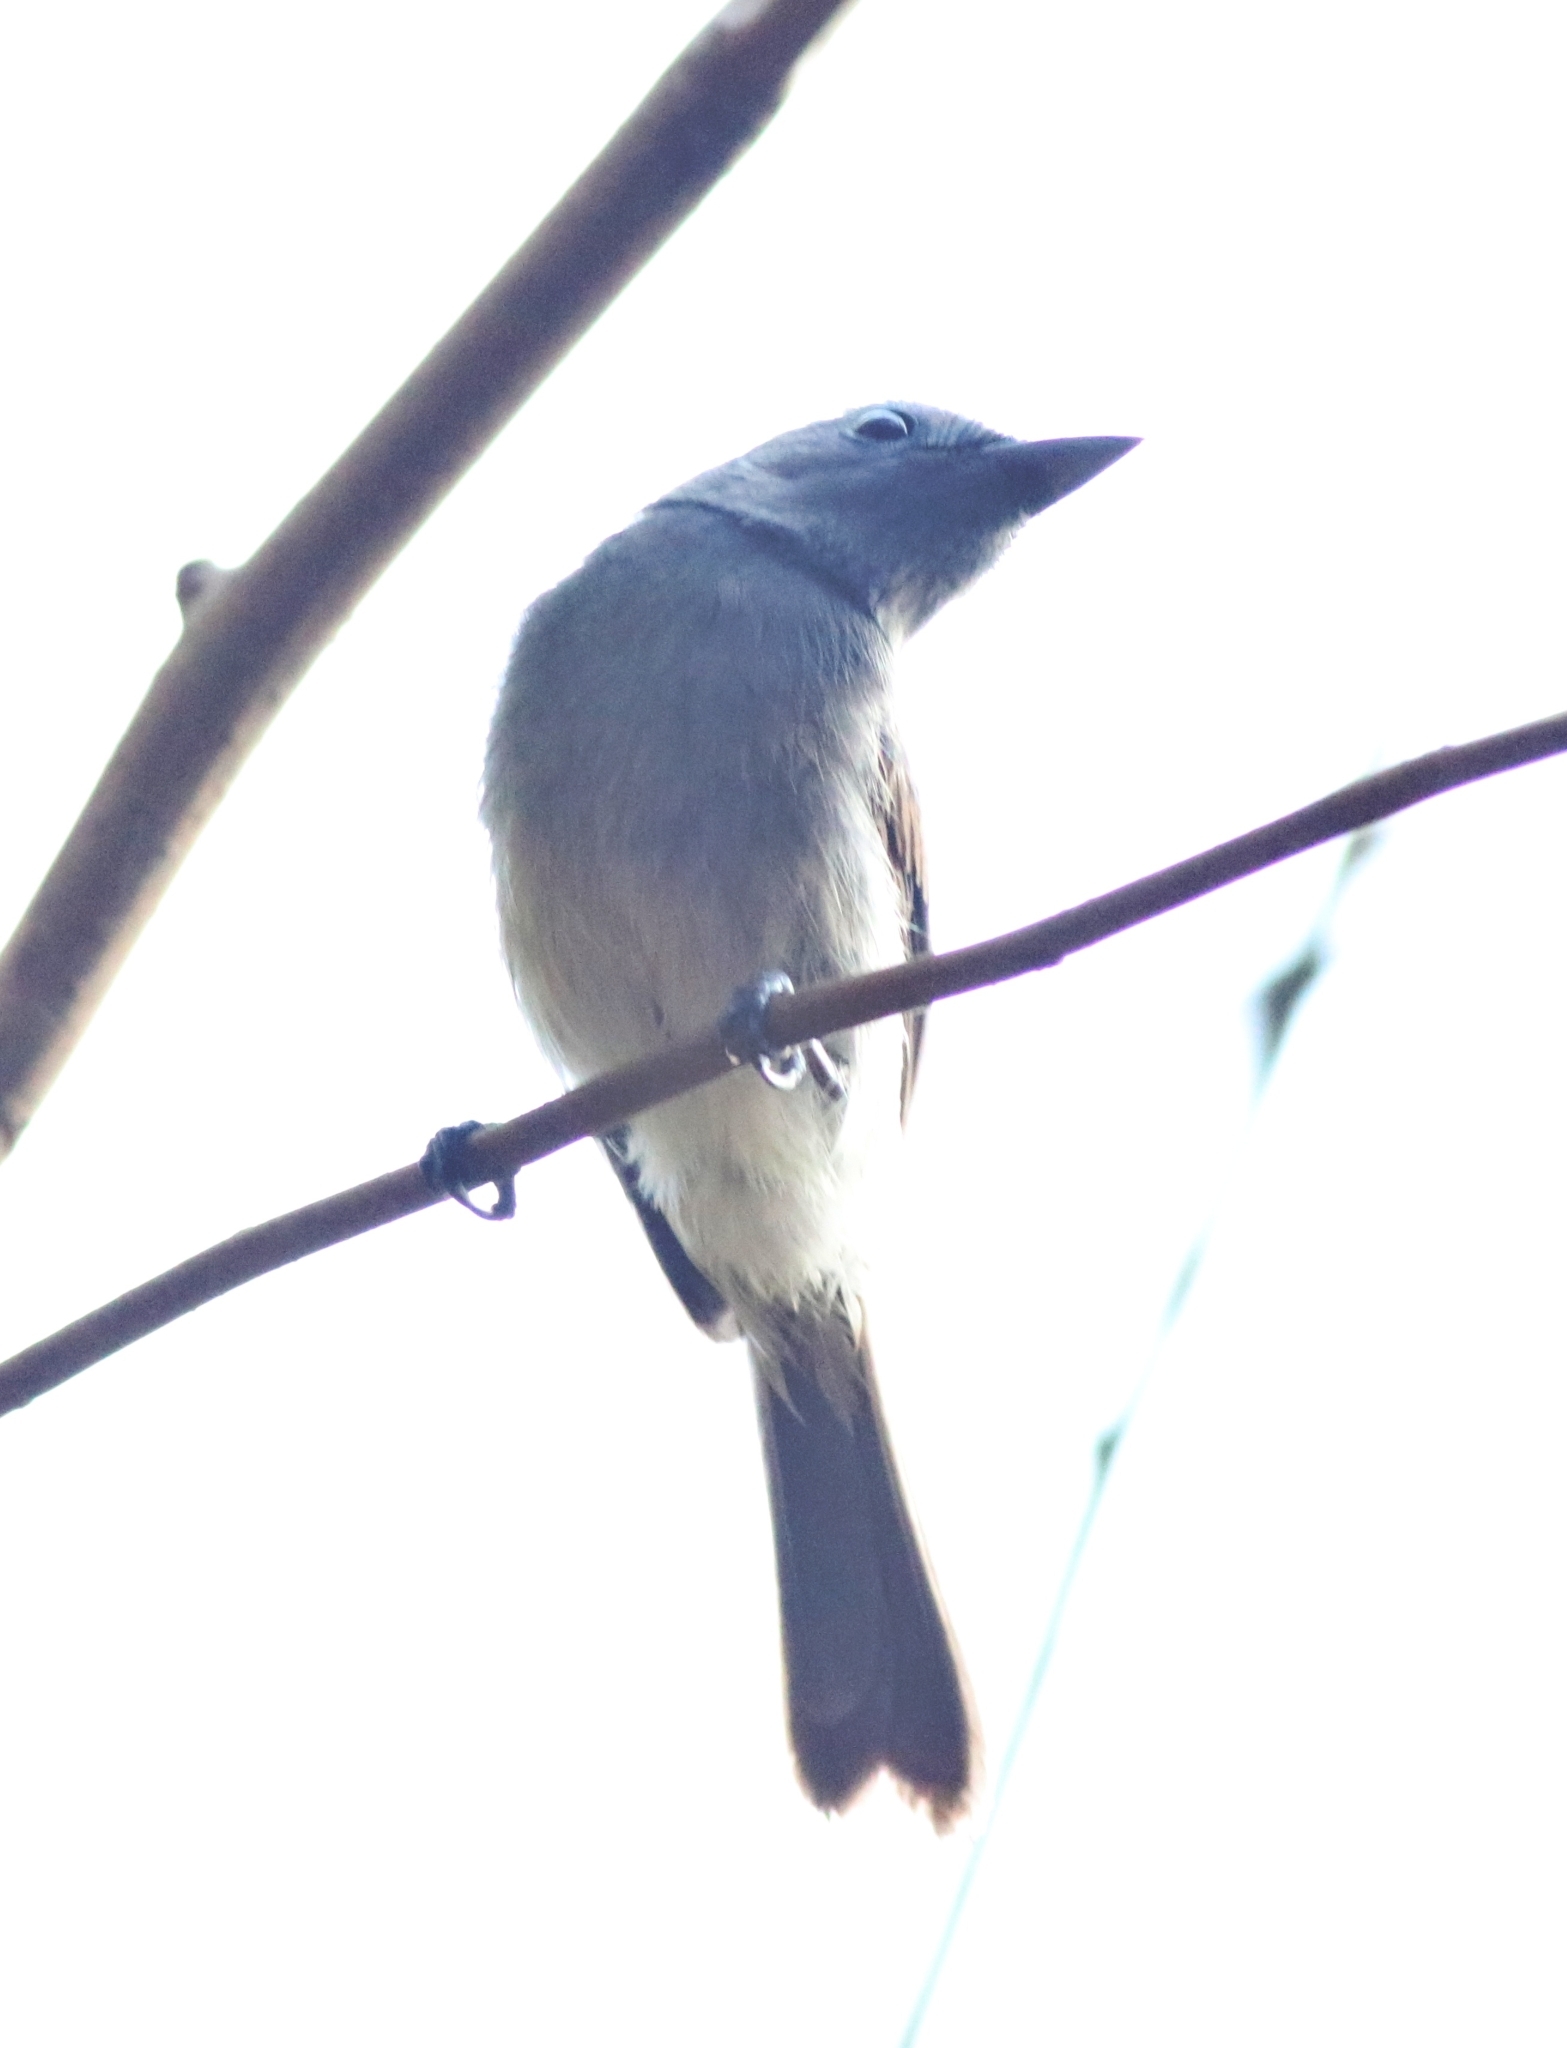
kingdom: Animalia
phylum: Chordata
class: Aves
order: Passeriformes
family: Monarchidae
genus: Hypothymis
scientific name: Hypothymis azurea
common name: Black-naped monarch
